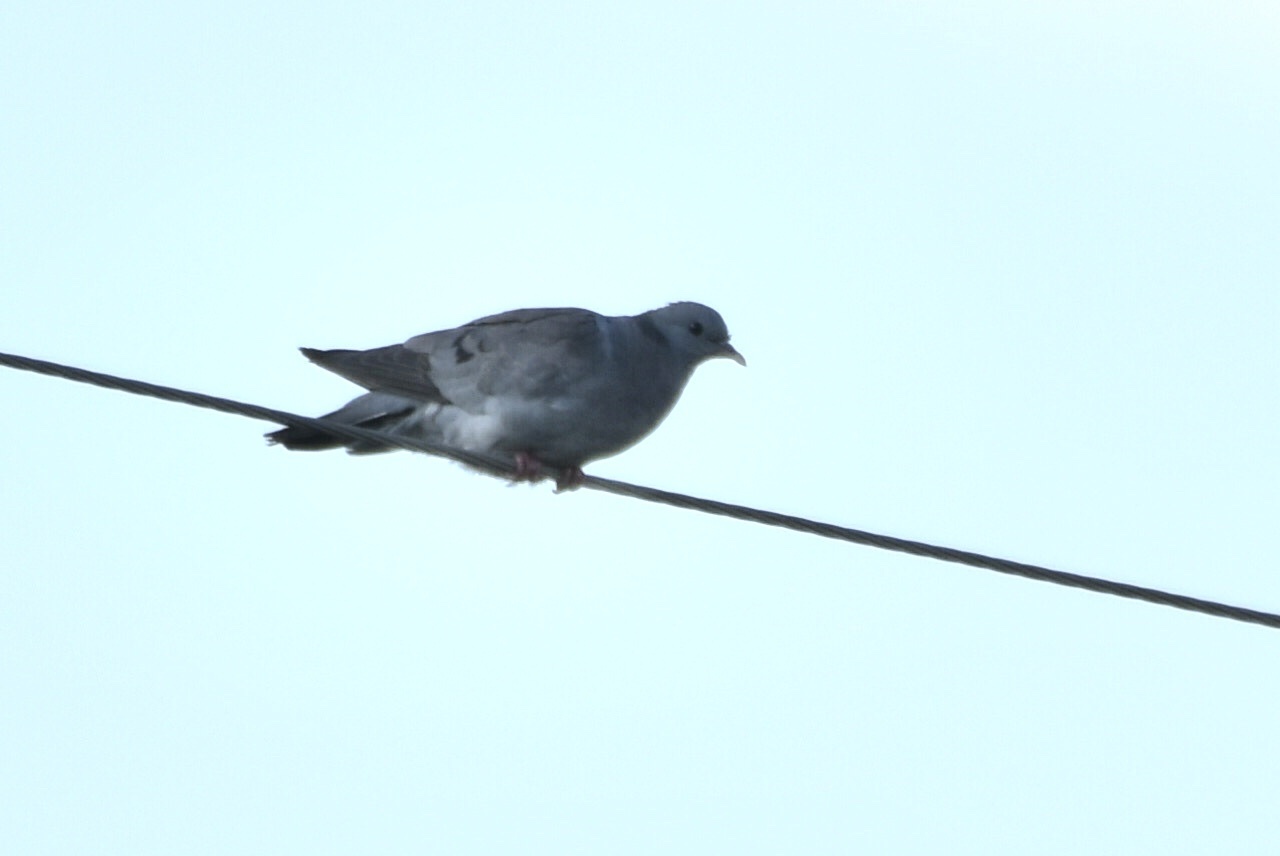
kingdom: Animalia
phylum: Chordata
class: Aves
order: Columbiformes
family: Columbidae
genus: Columba
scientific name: Columba oenas
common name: Stock dove
